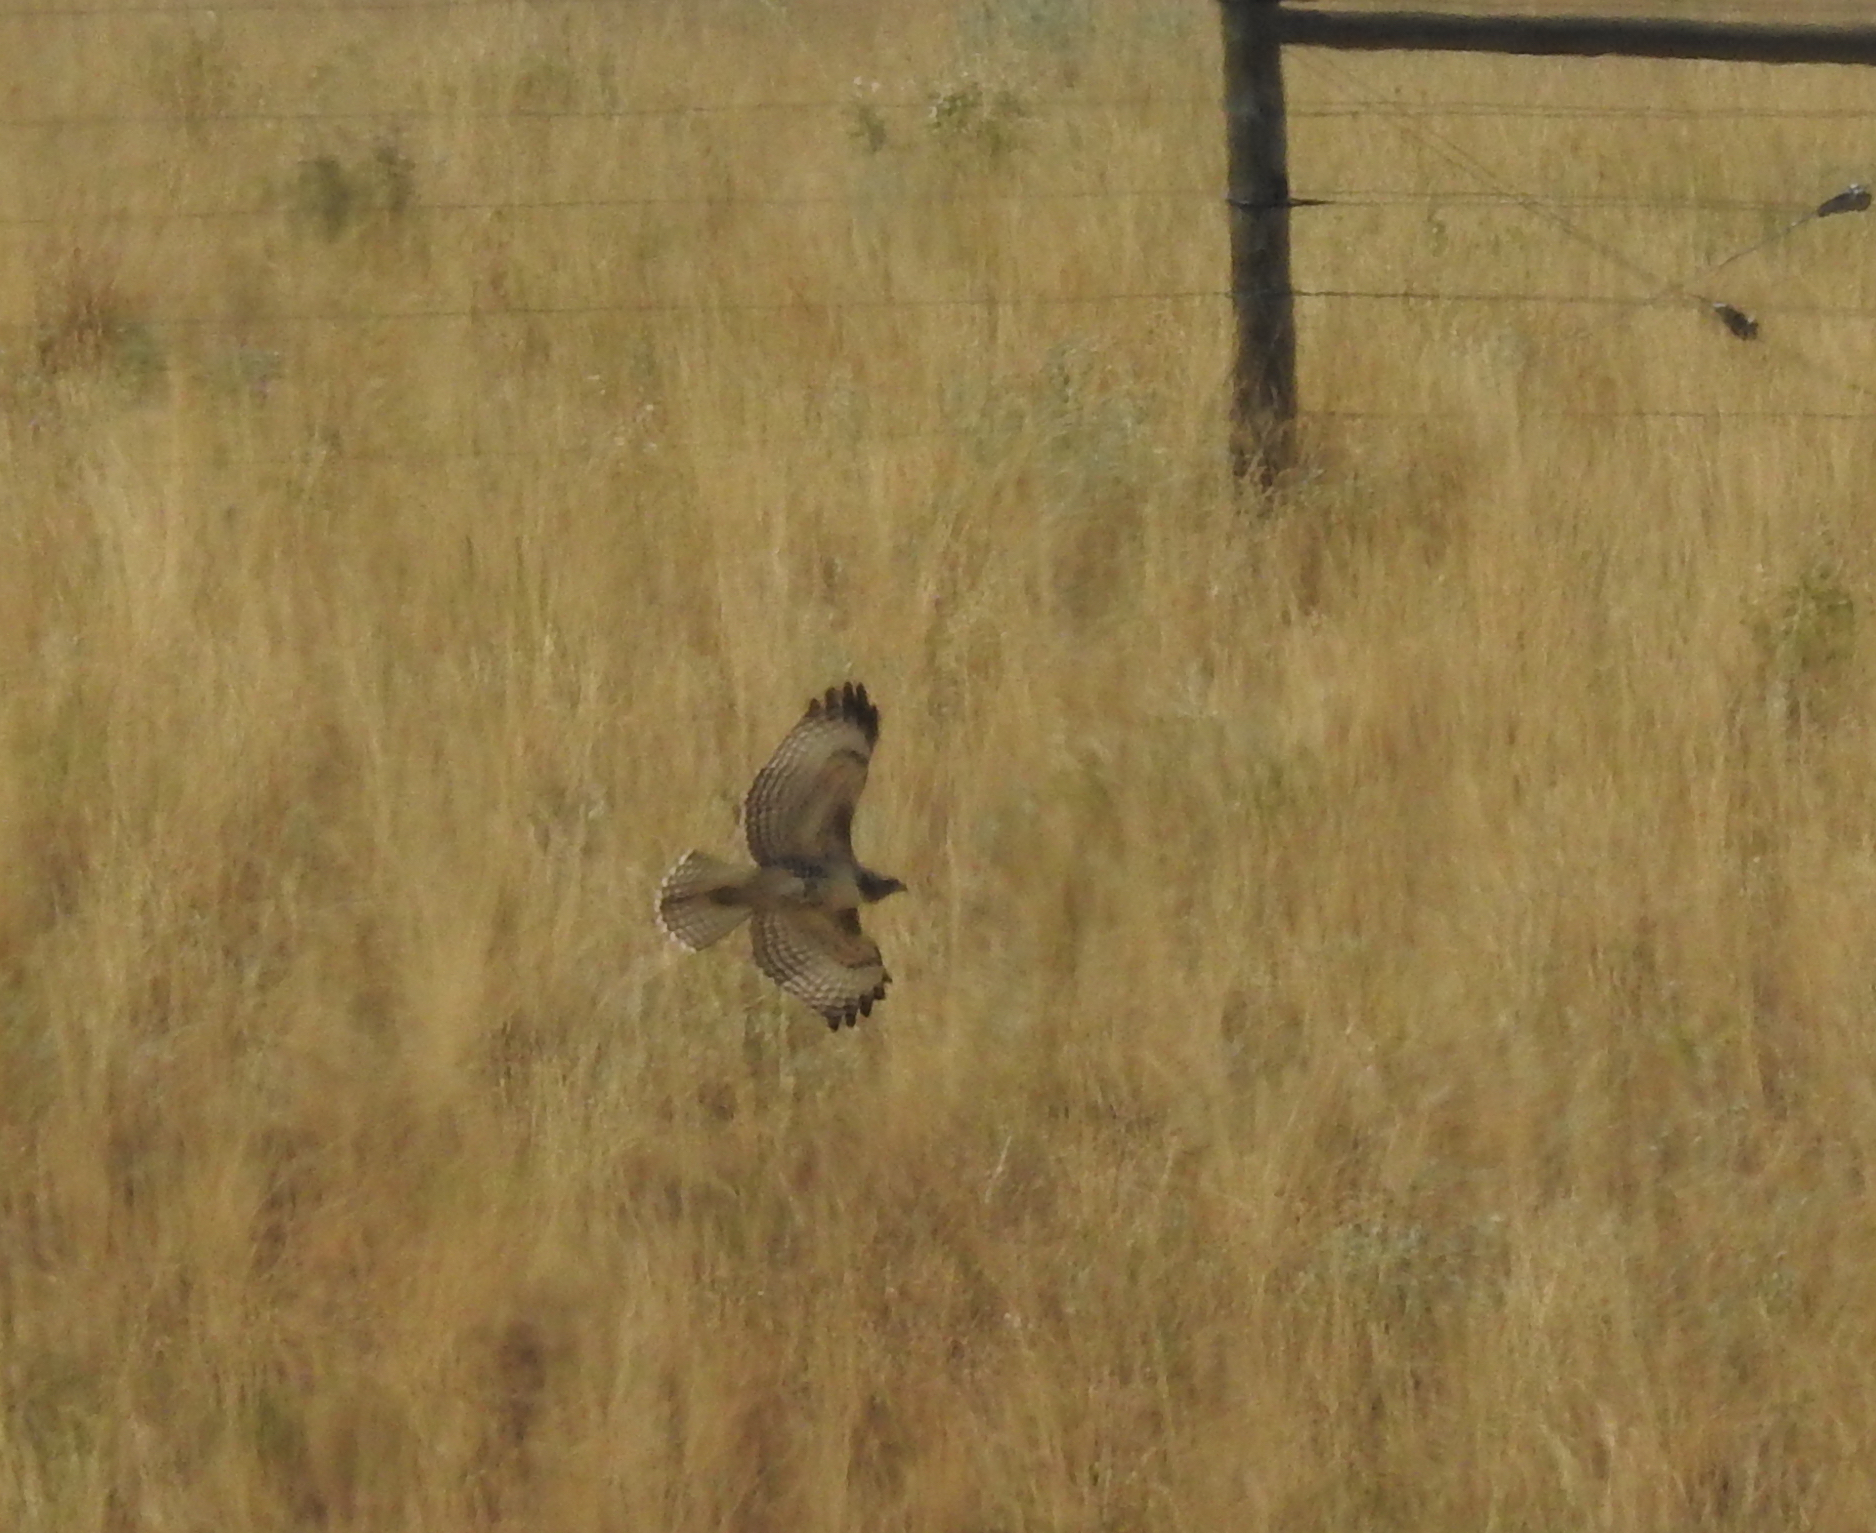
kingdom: Animalia
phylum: Chordata
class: Aves
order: Accipitriformes
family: Accipitridae
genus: Buteo
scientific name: Buteo jamaicensis
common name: Red-tailed hawk
